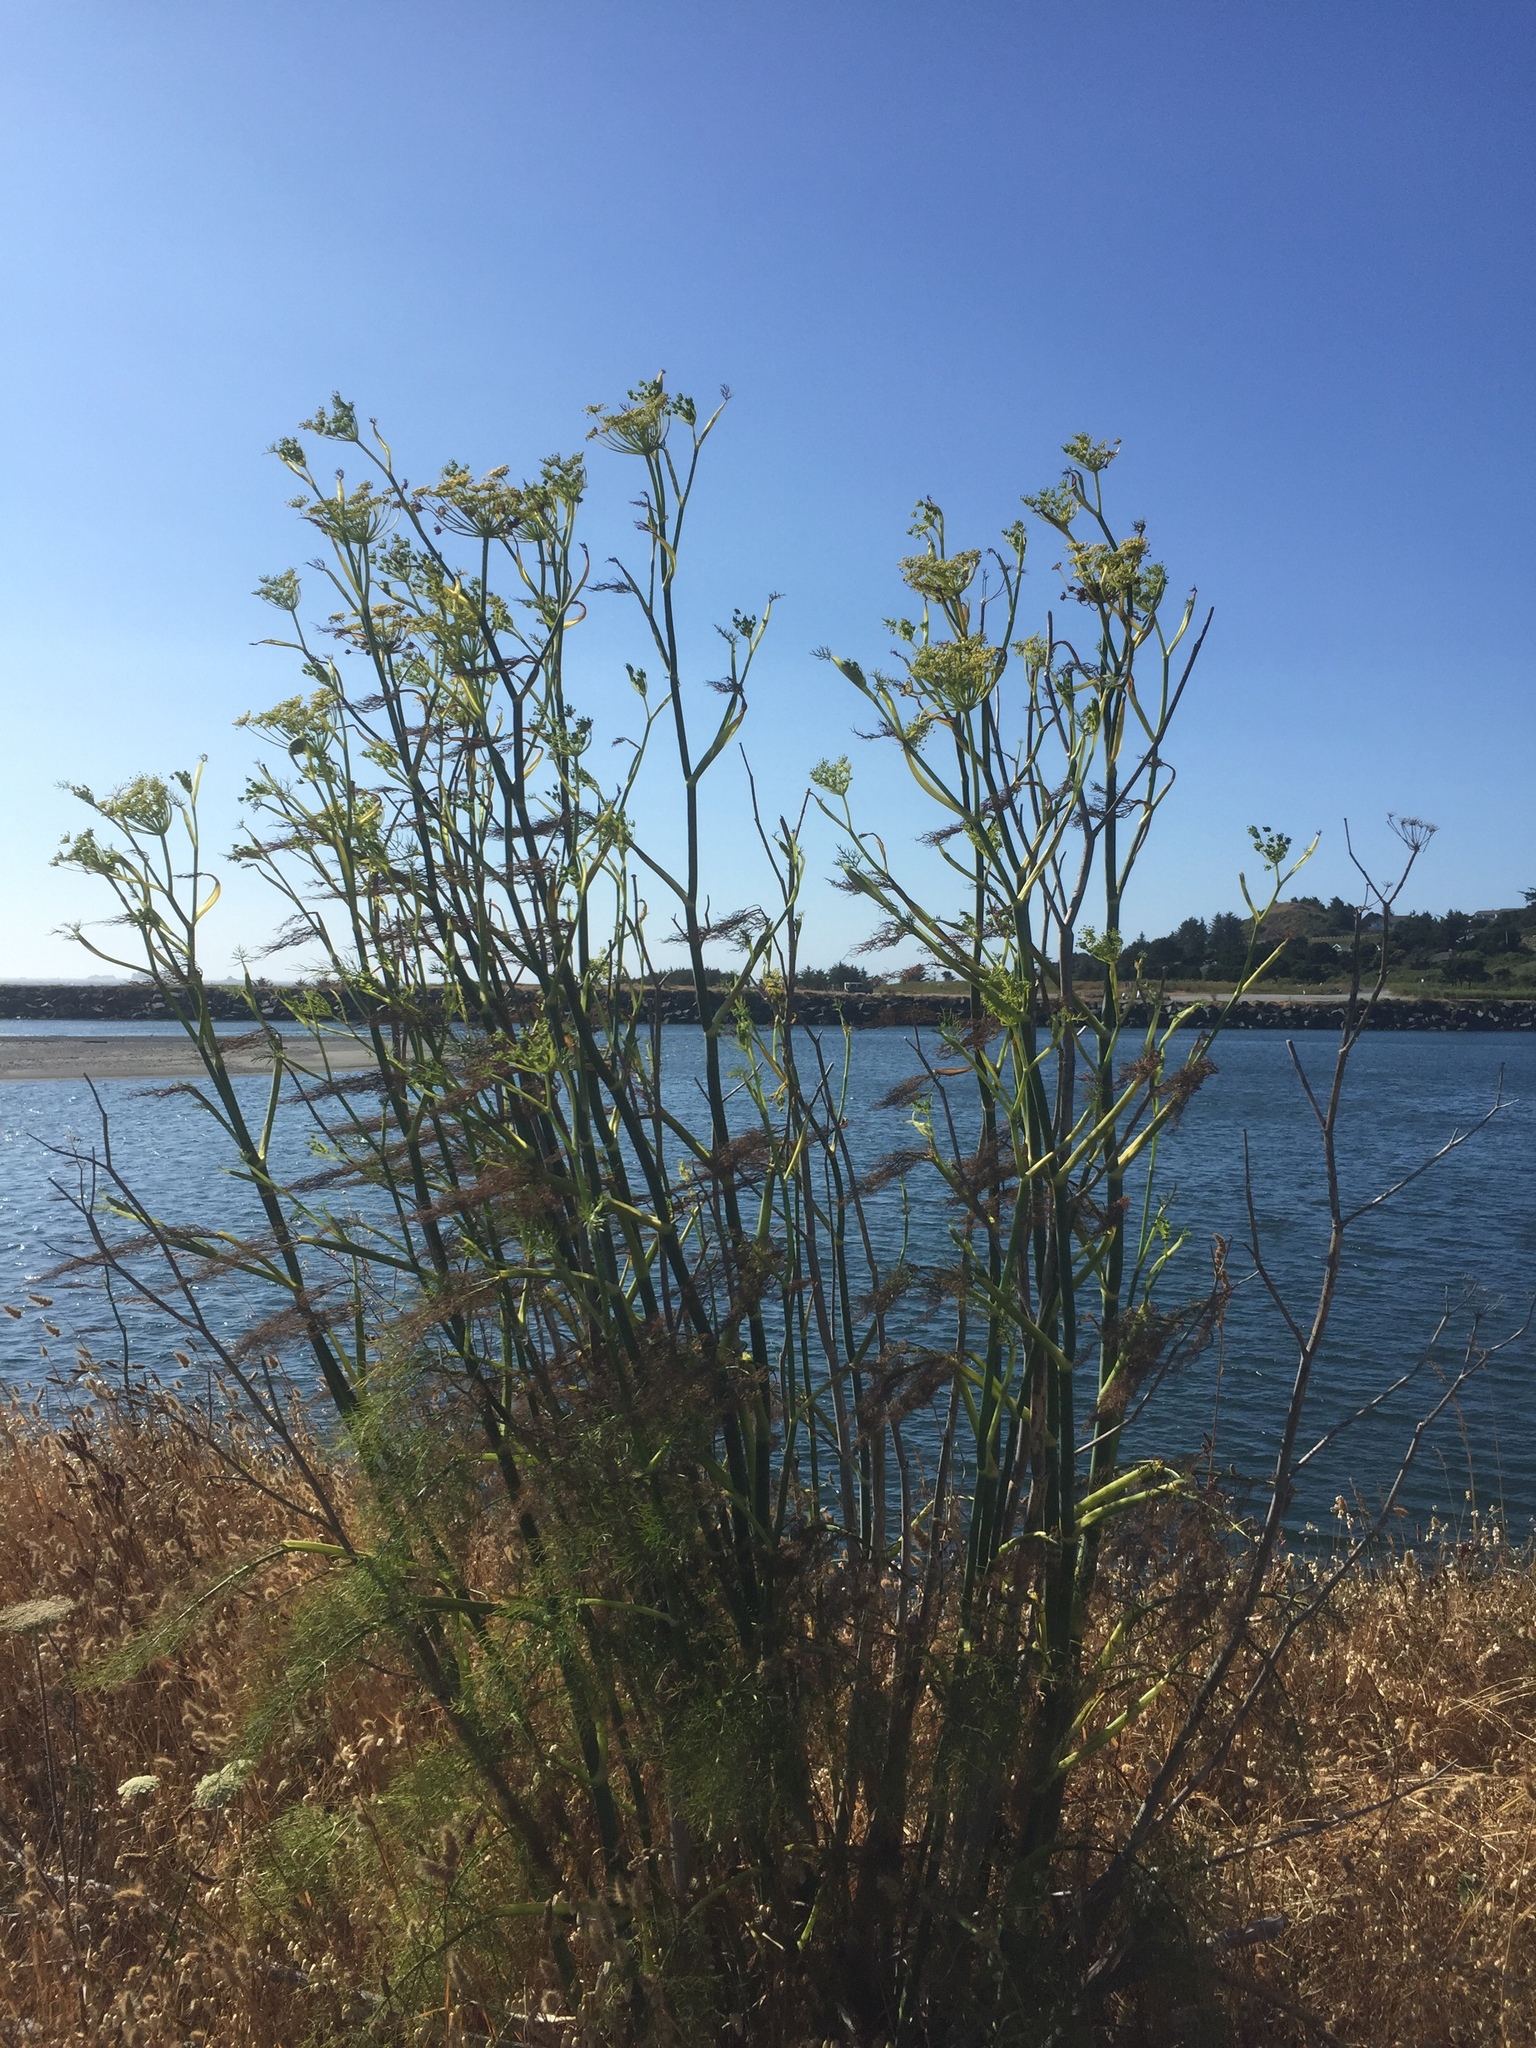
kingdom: Plantae
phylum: Tracheophyta
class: Magnoliopsida
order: Apiales
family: Apiaceae
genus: Foeniculum
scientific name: Foeniculum vulgare
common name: Fennel
